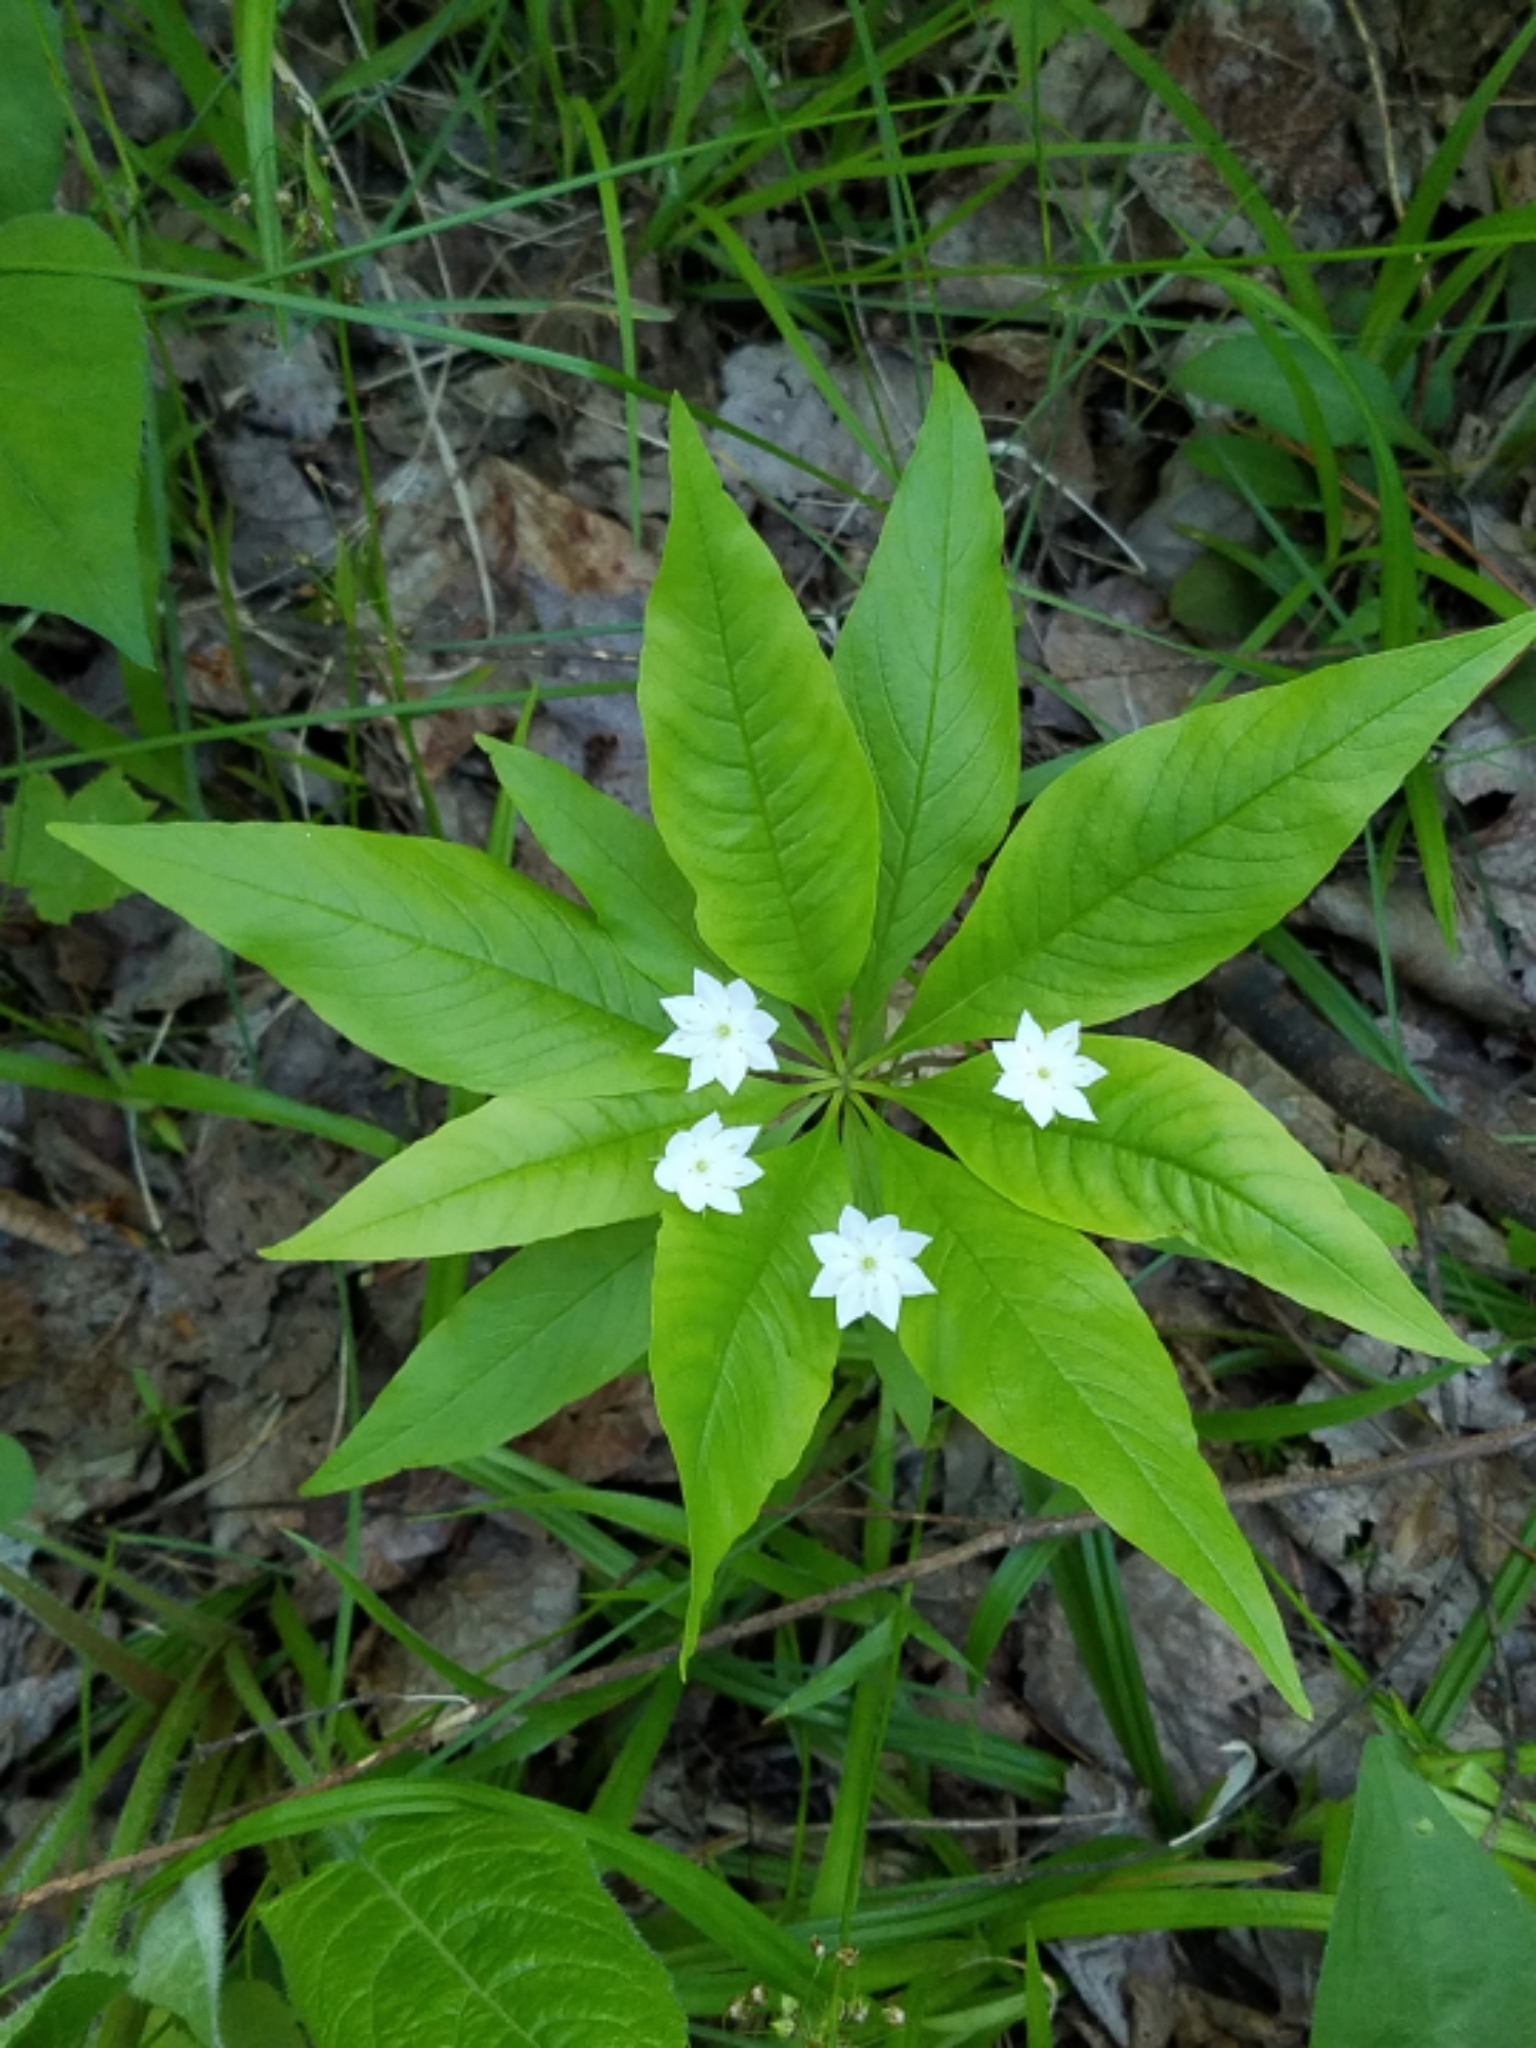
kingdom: Plantae
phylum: Tracheophyta
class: Magnoliopsida
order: Ericales
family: Primulaceae
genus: Lysimachia
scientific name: Lysimachia borealis
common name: American starflower
